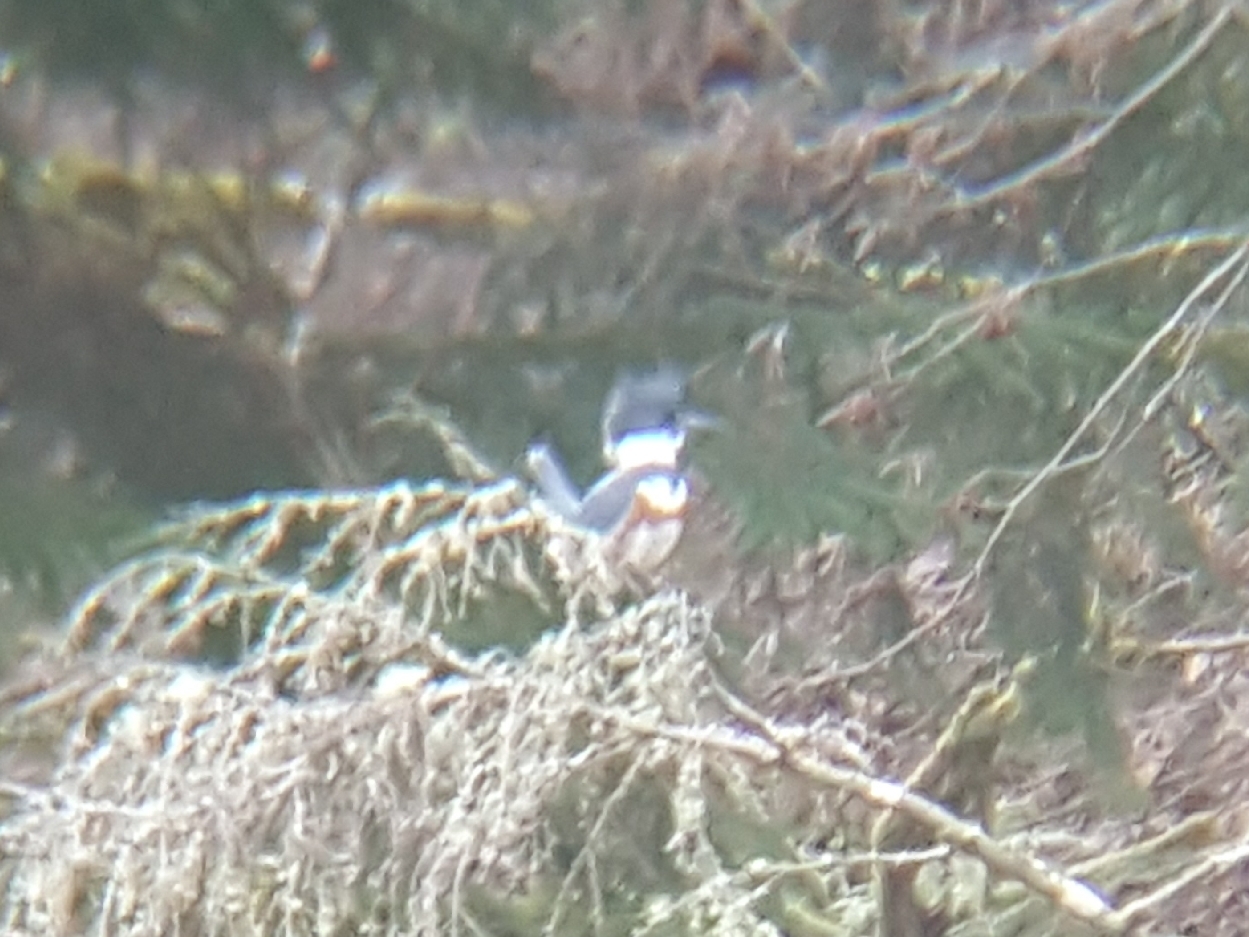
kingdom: Animalia
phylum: Chordata
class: Aves
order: Coraciiformes
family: Alcedinidae
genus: Megaceryle
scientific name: Megaceryle alcyon
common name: Belted kingfisher
